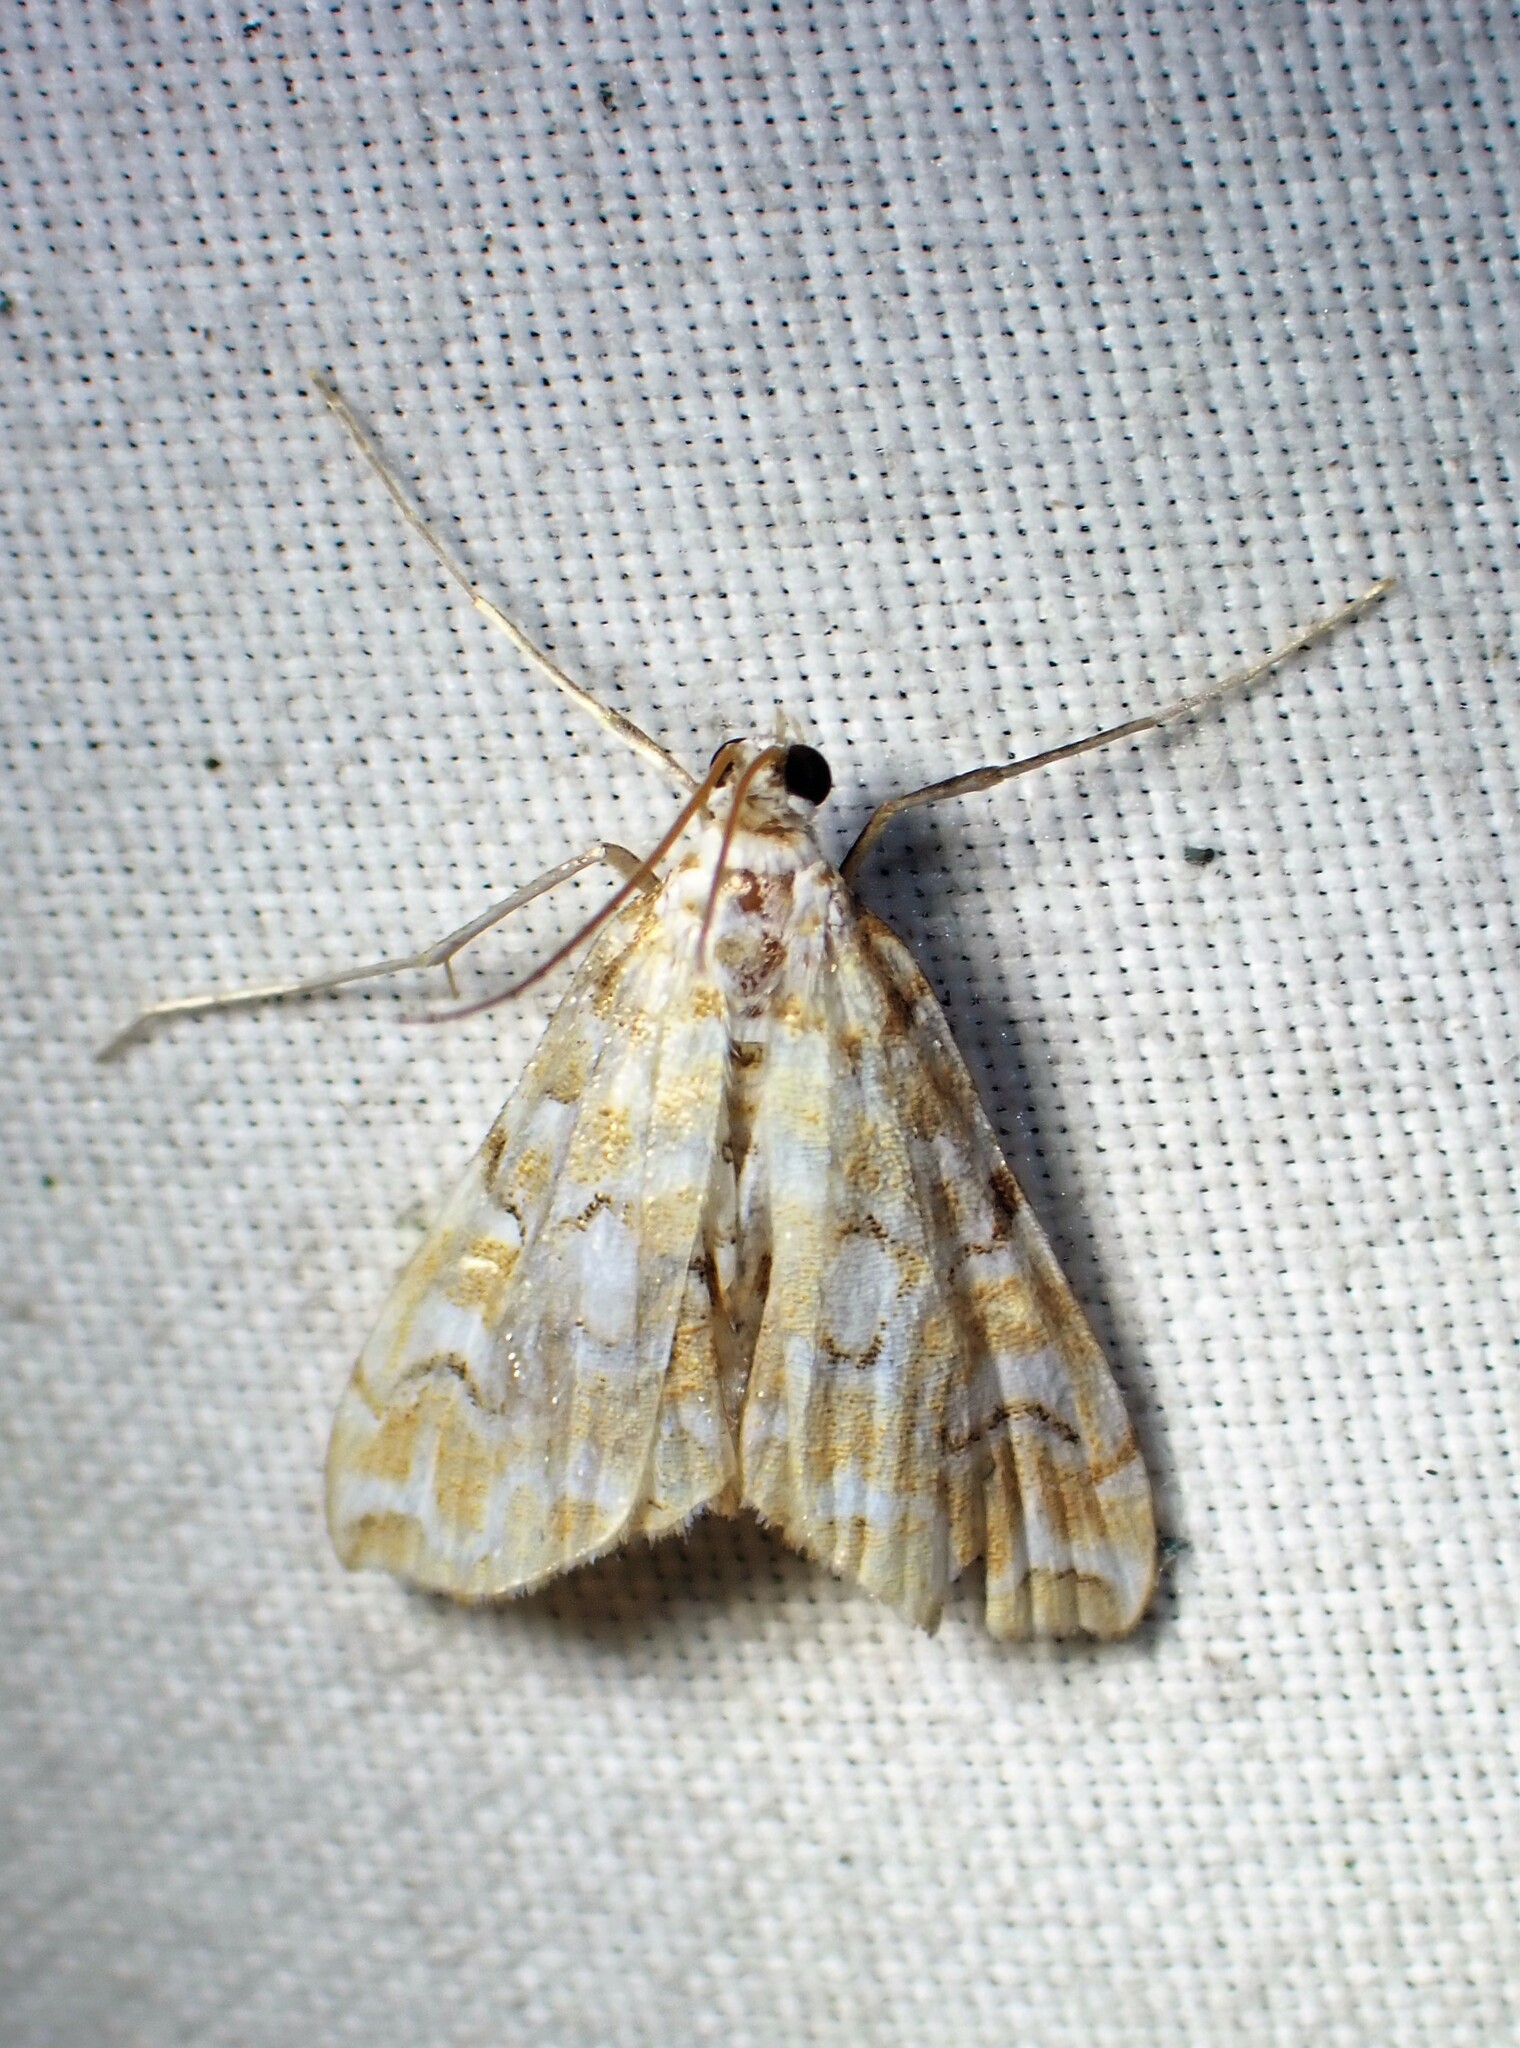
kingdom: Animalia
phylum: Arthropoda
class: Insecta
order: Lepidoptera
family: Crambidae
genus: Elophila
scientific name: Elophila icciusalis
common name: Pondside pyralid moth
